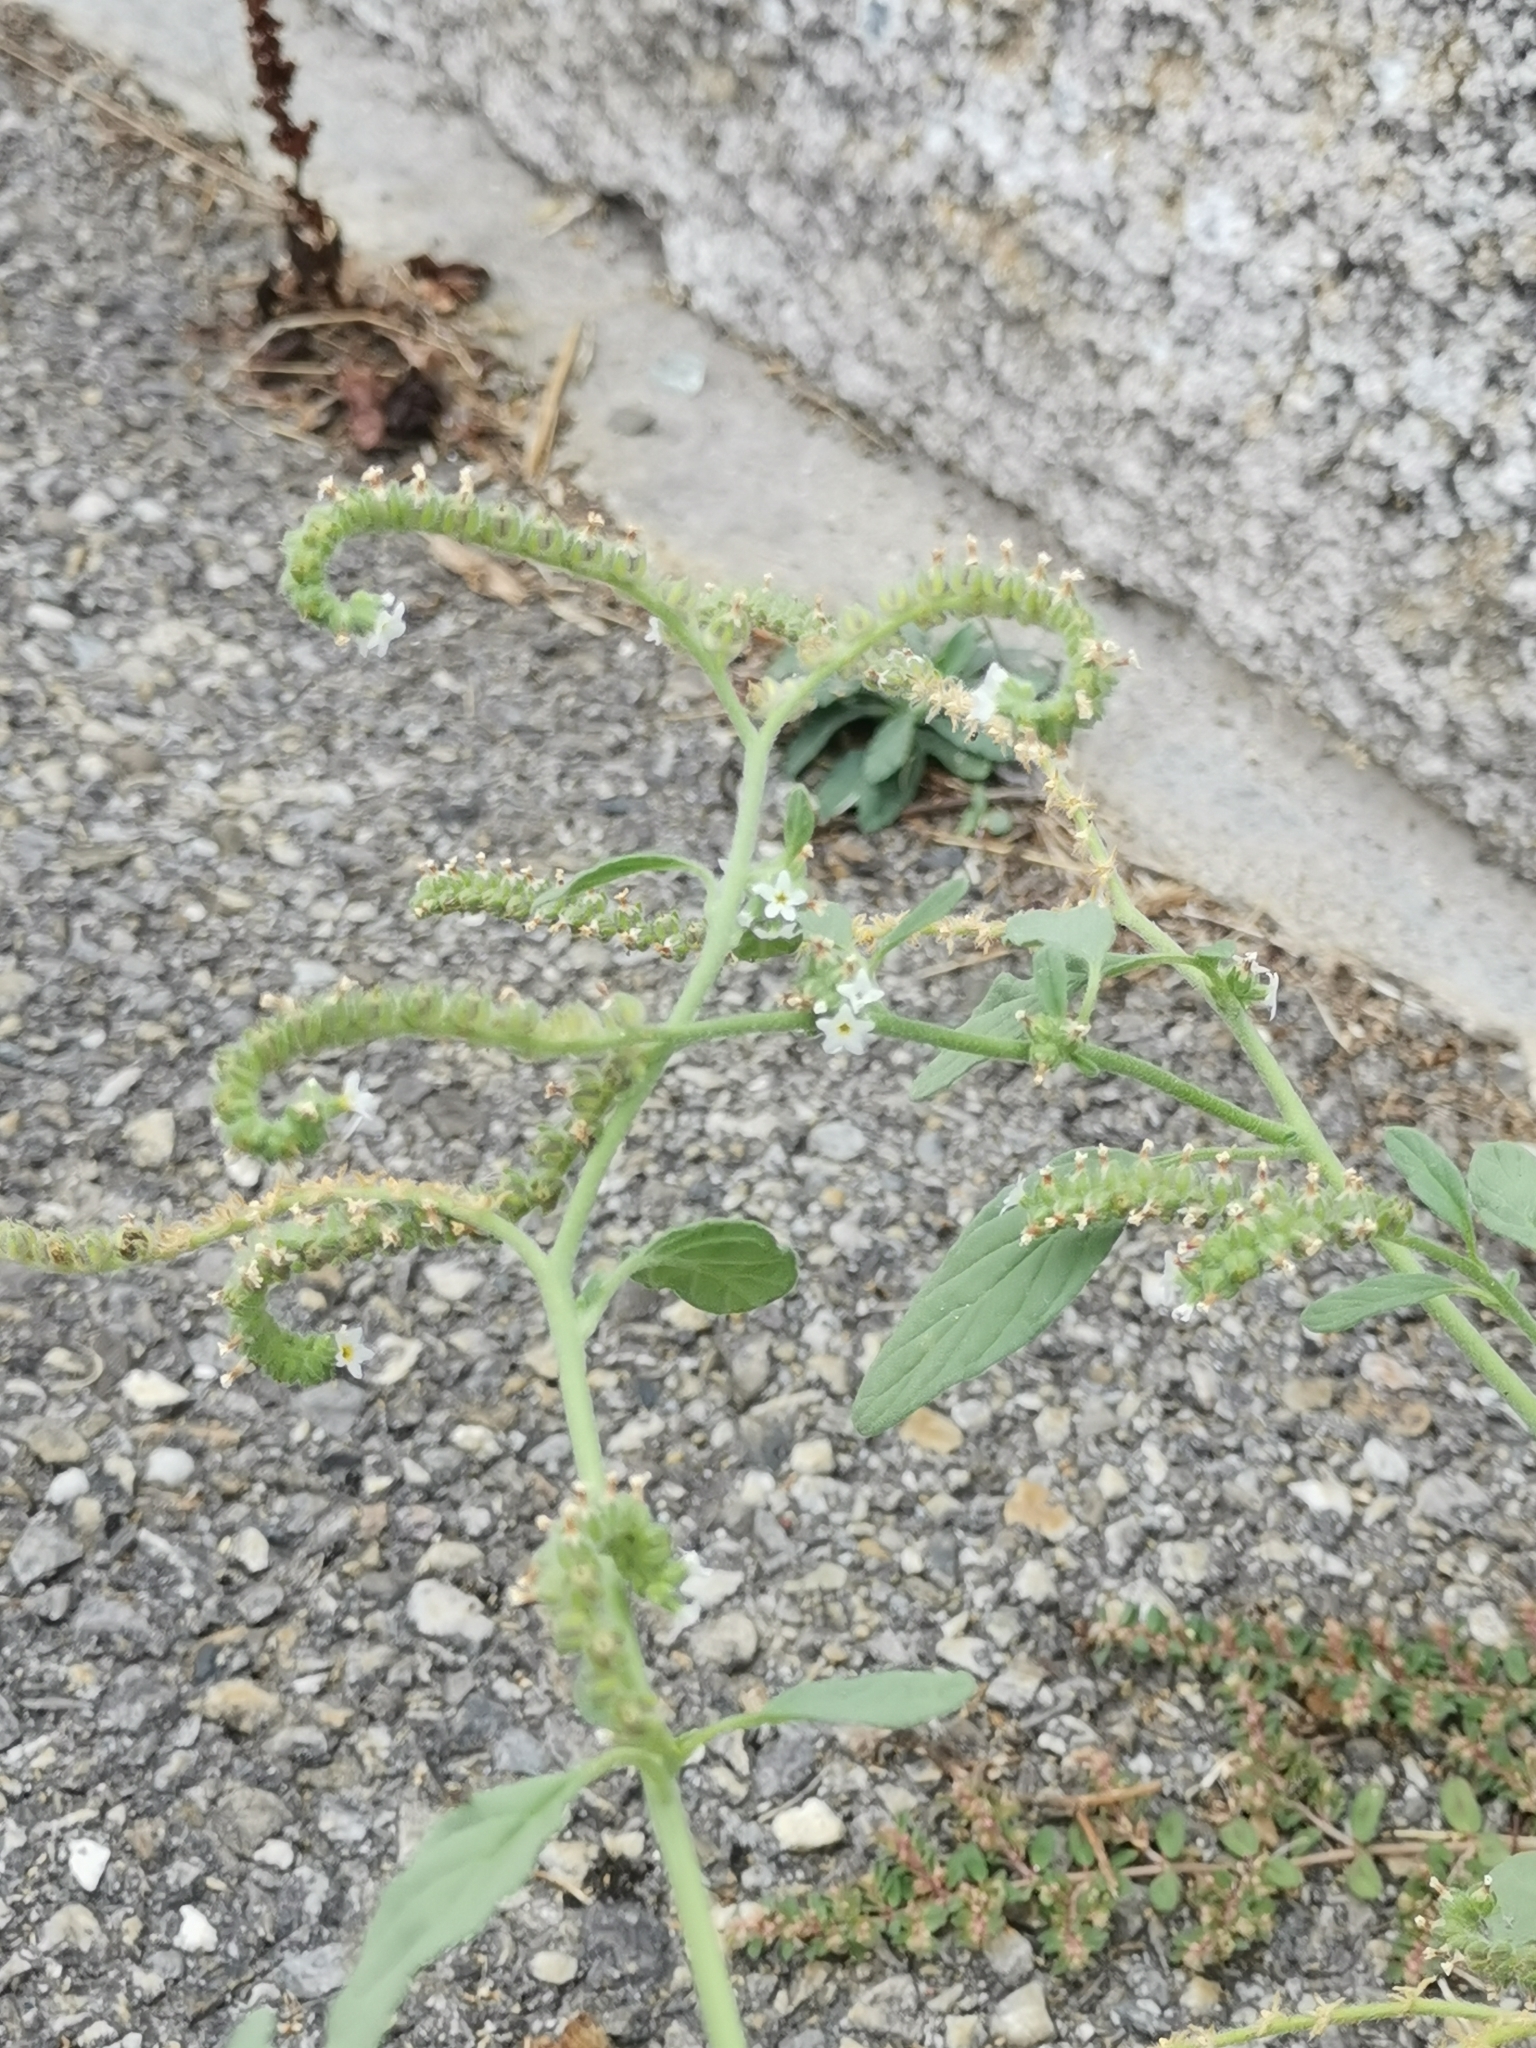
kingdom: Plantae
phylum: Tracheophyta
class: Magnoliopsida
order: Boraginales
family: Heliotropiaceae
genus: Heliotropium
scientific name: Heliotropium europaeum
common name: European heliotrope
